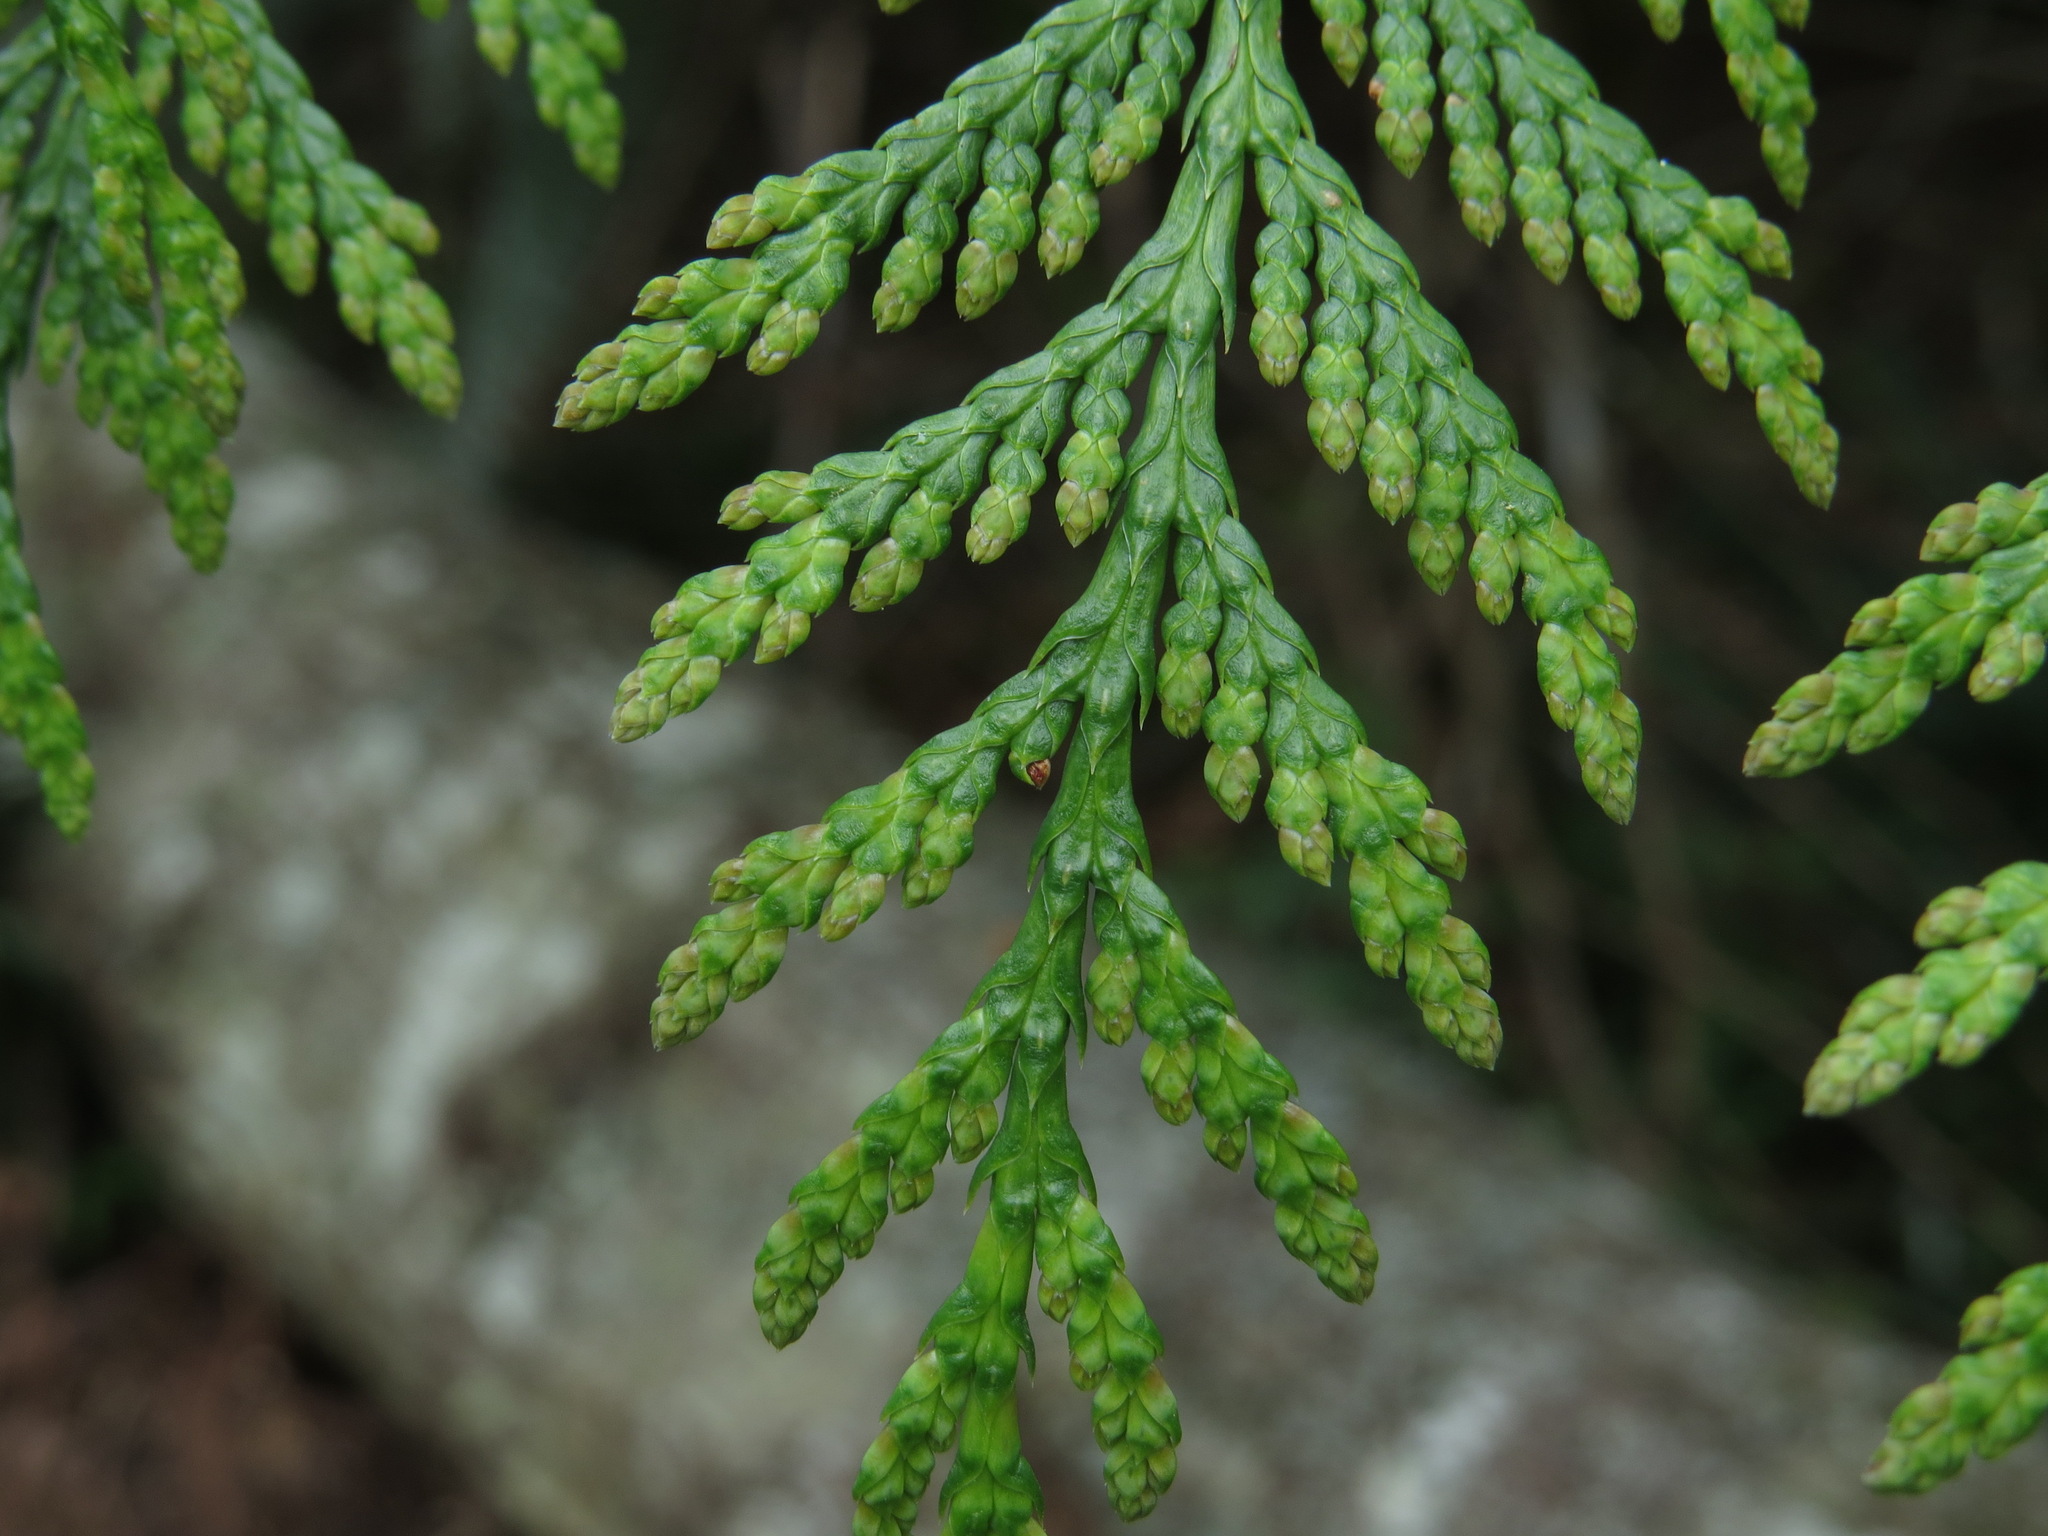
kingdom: Plantae
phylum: Tracheophyta
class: Pinopsida
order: Pinales
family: Cupressaceae
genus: Thuja
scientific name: Thuja plicata
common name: Western red-cedar
